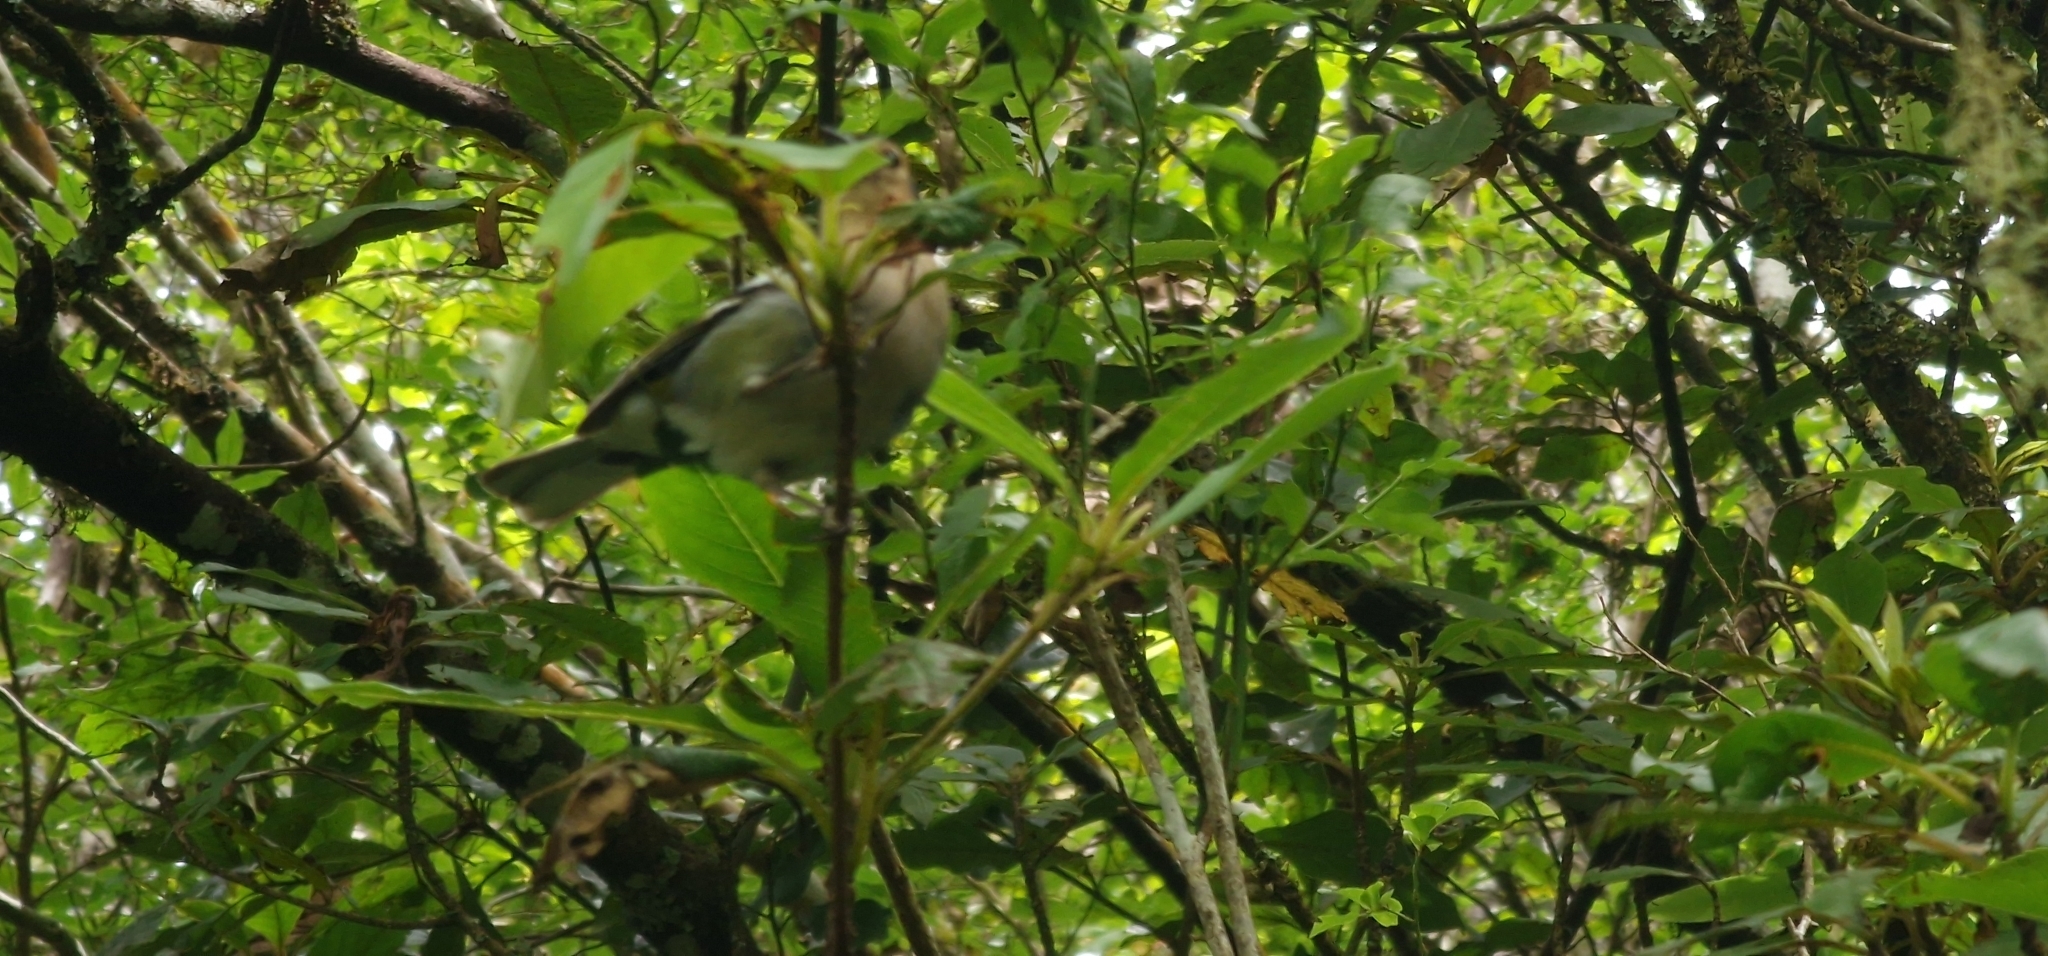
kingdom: Animalia
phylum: Chordata
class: Aves
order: Passeriformes
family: Fringillidae
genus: Fringilla
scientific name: Fringilla maderensis
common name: Madeira chaffinch
